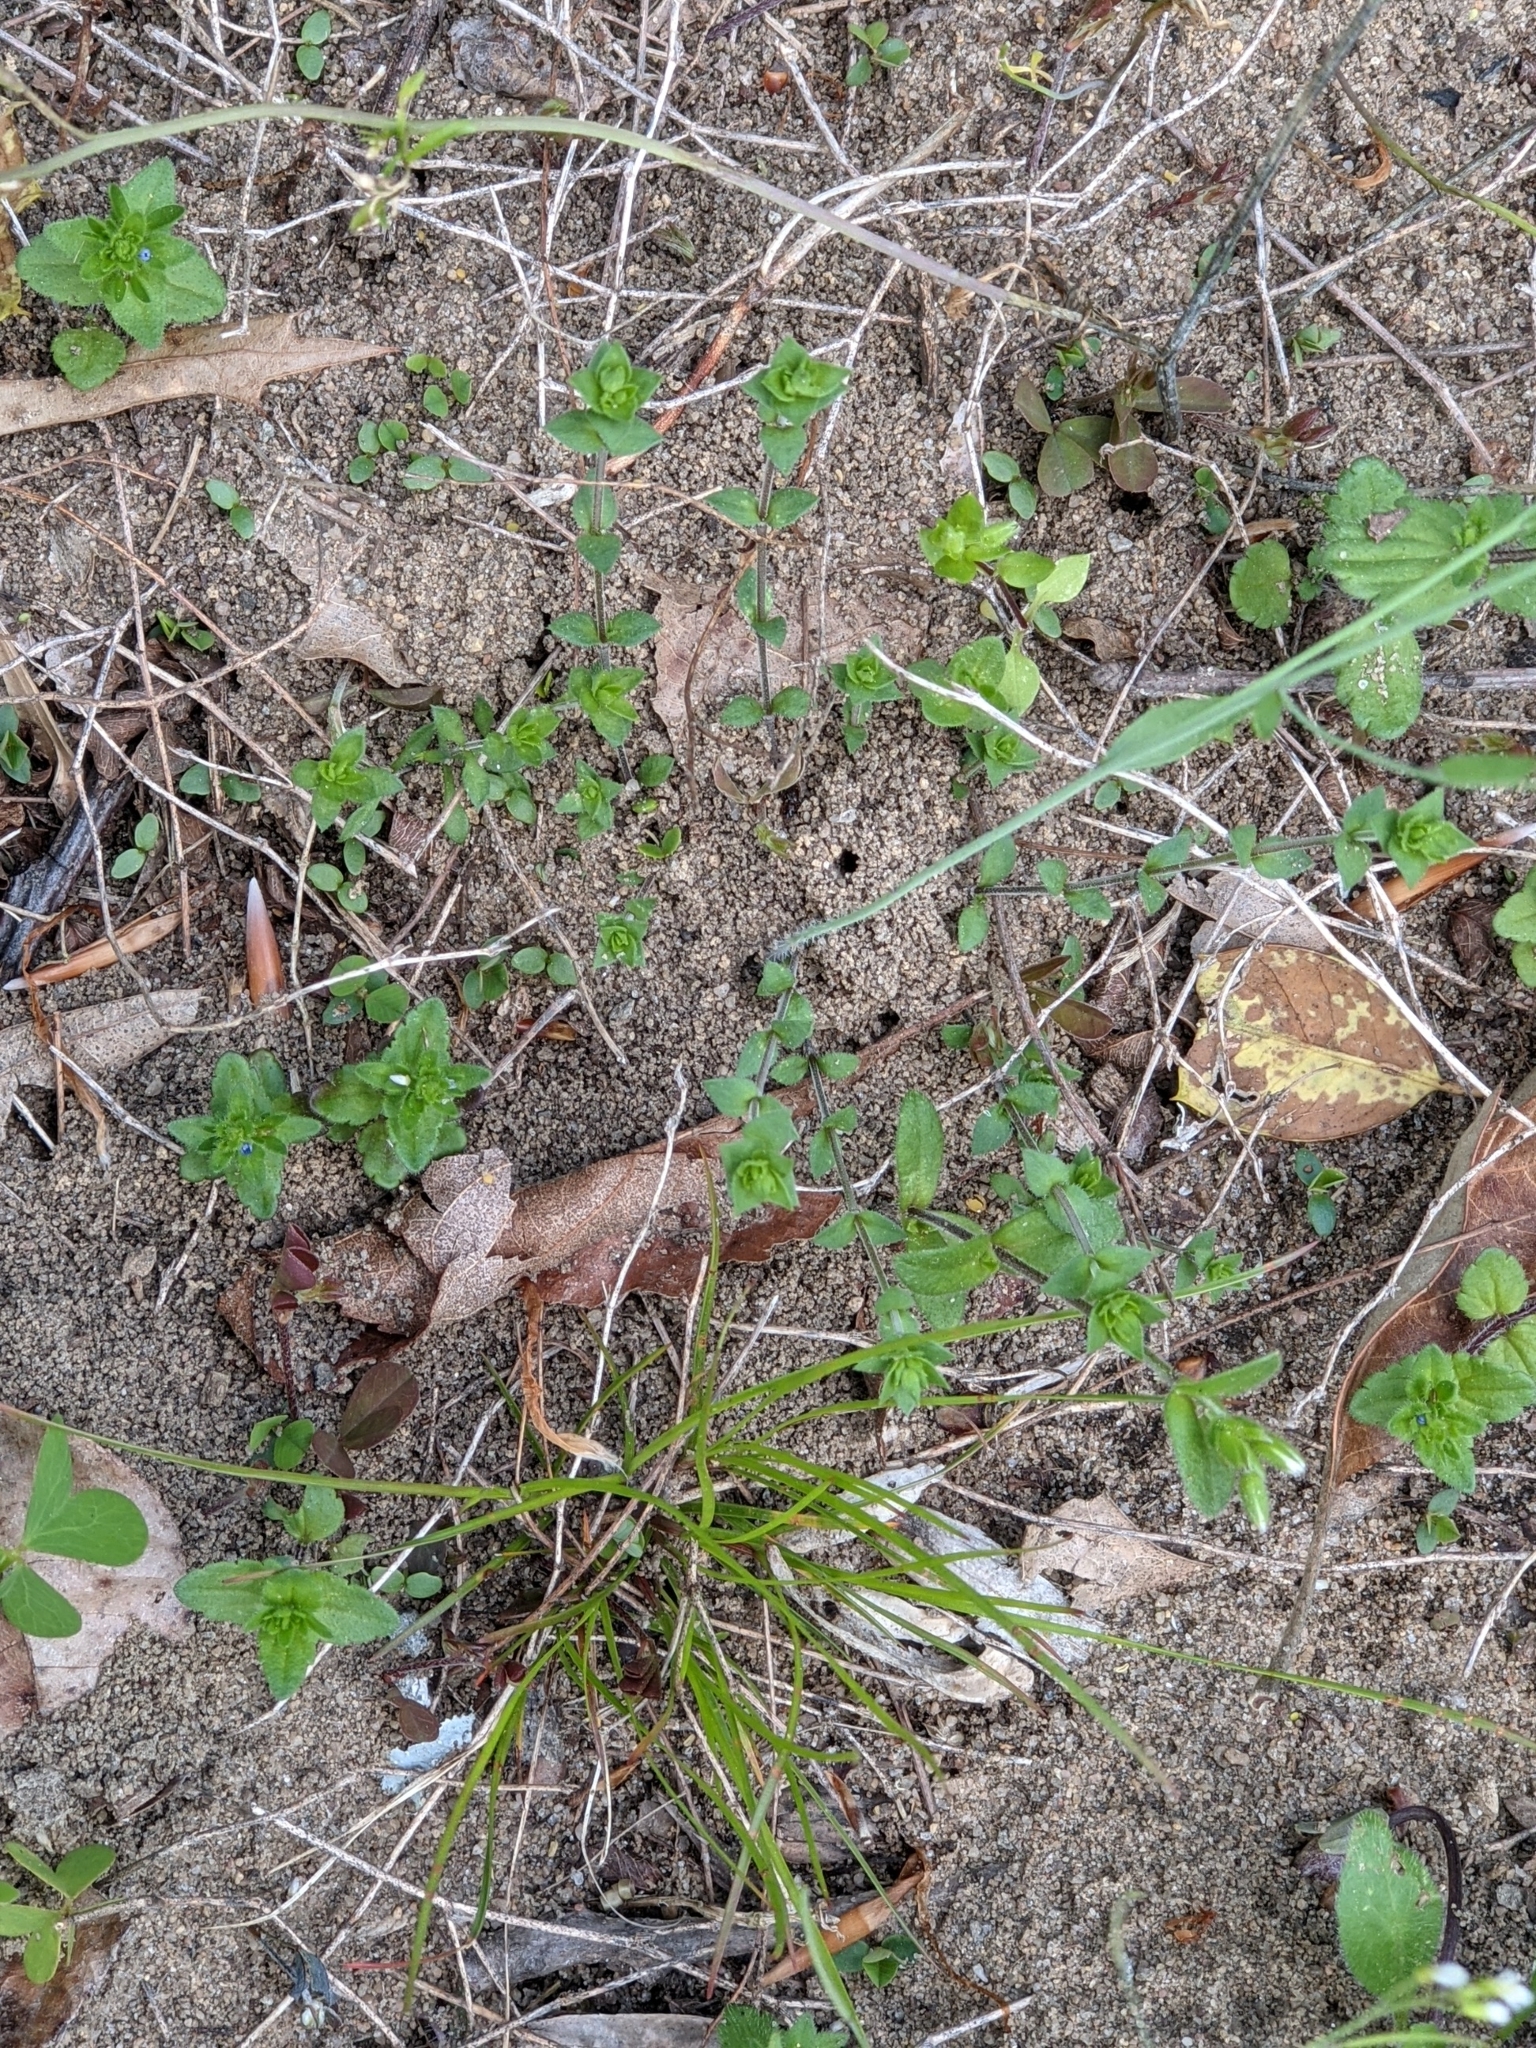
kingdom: Plantae
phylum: Tracheophyta
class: Magnoliopsida
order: Brassicales
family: Brassicaceae
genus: Arabidopsis
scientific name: Arabidopsis thaliana
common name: Thale cress
